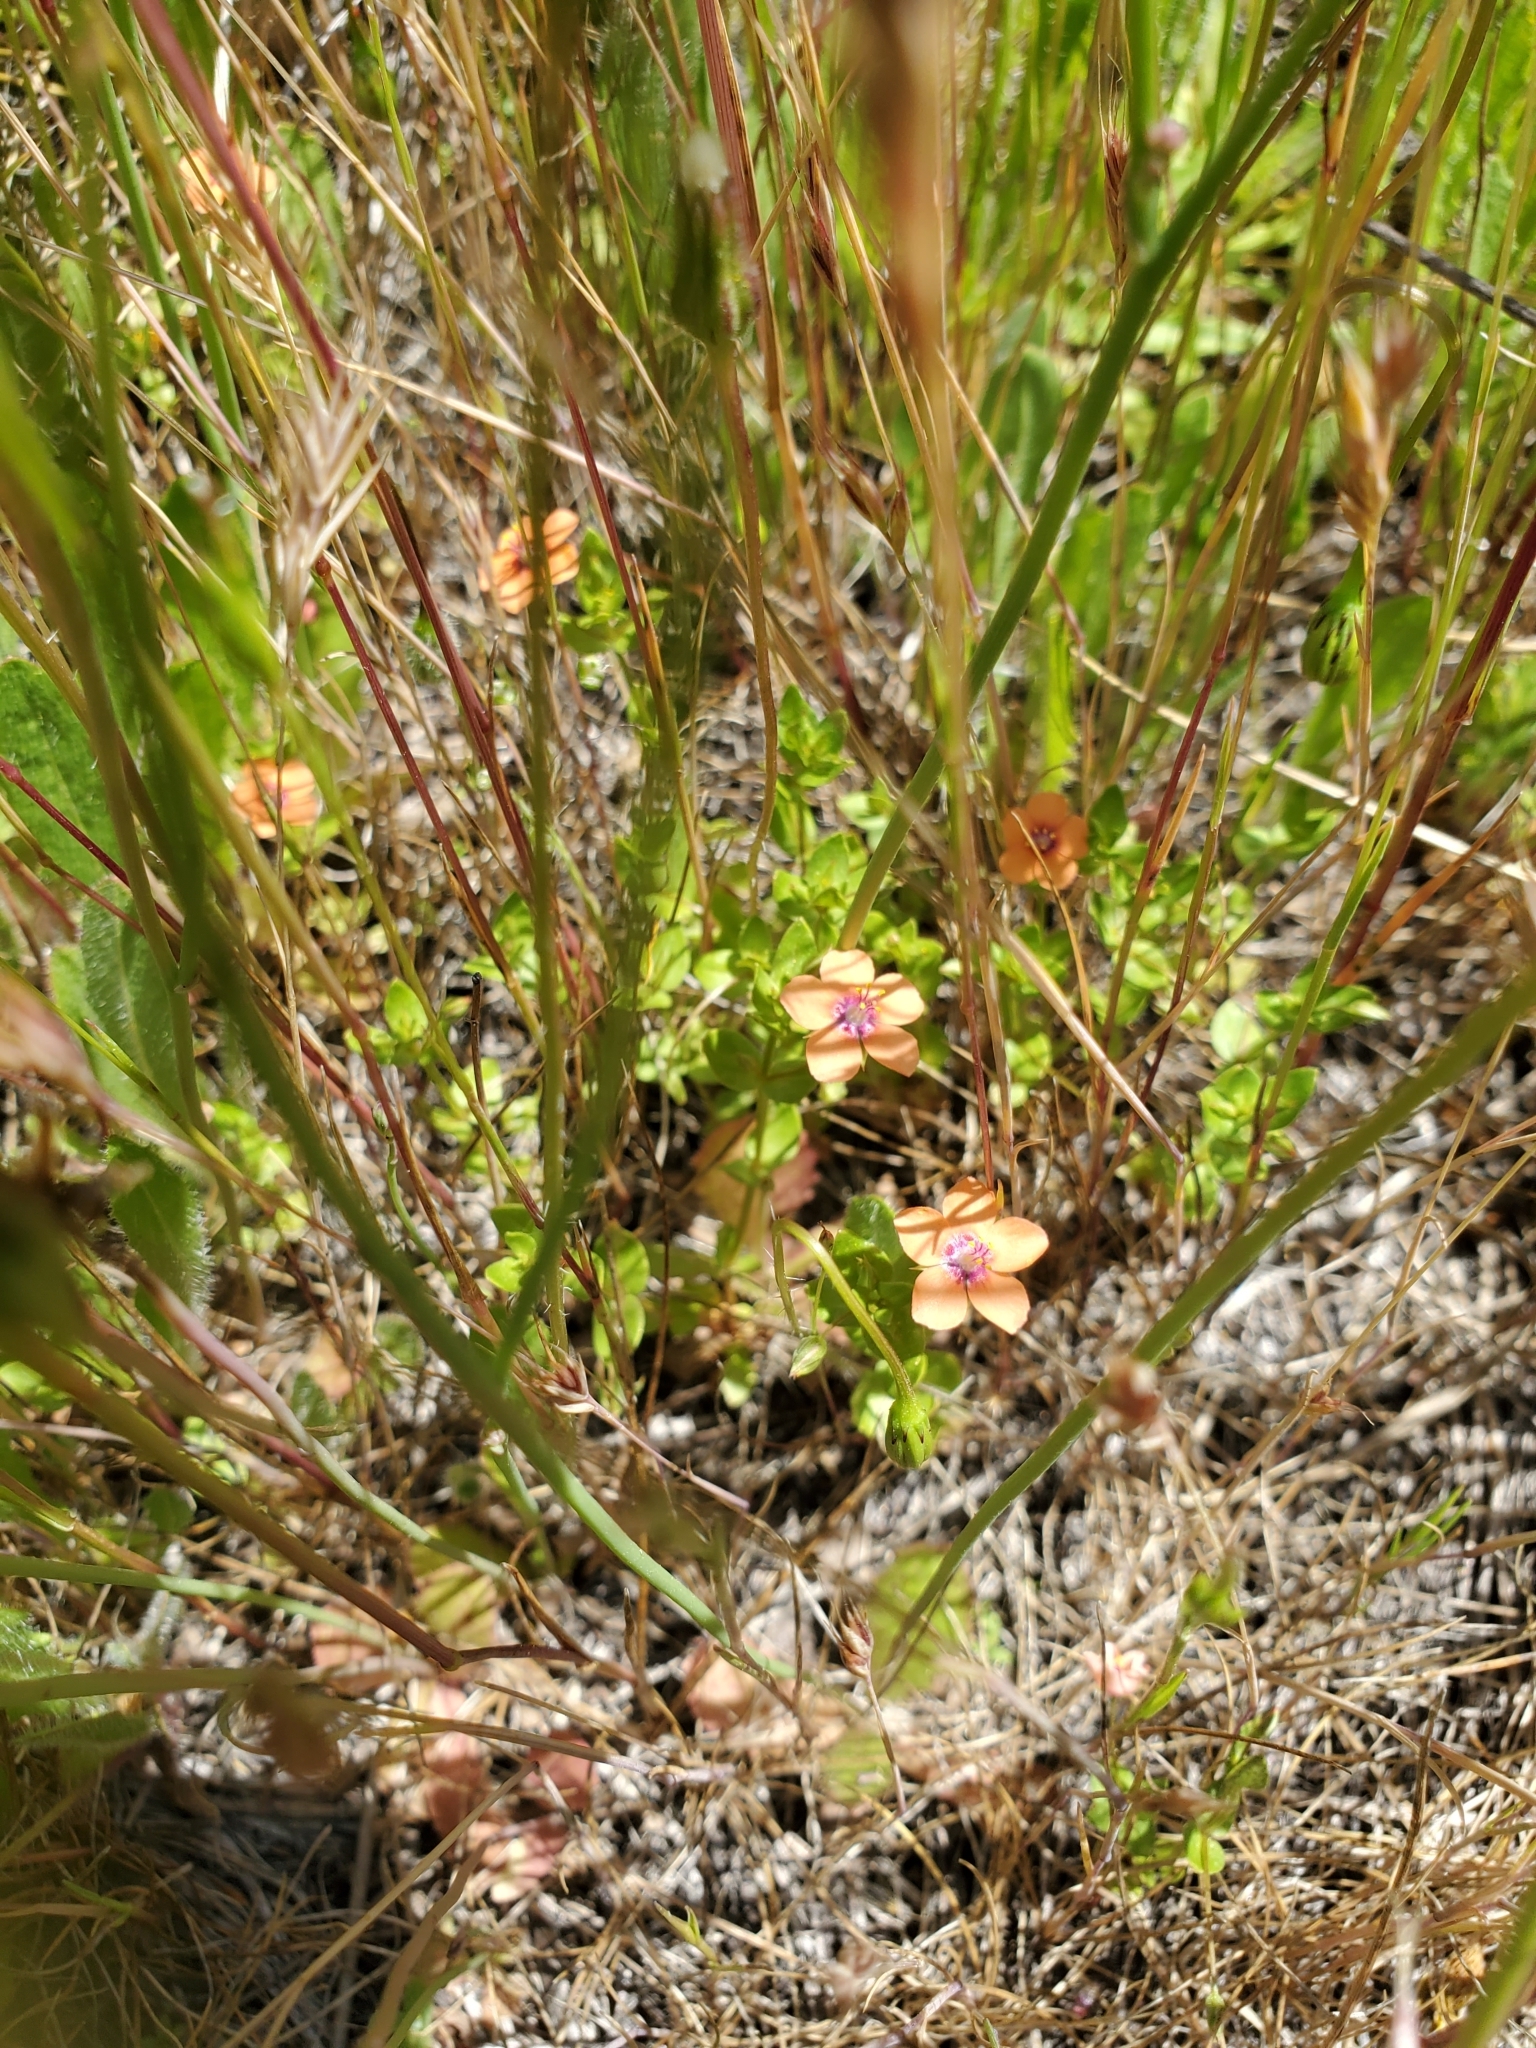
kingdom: Plantae
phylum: Tracheophyta
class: Magnoliopsida
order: Ericales
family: Primulaceae
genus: Lysimachia
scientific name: Lysimachia arvensis
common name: Scarlet pimpernel
